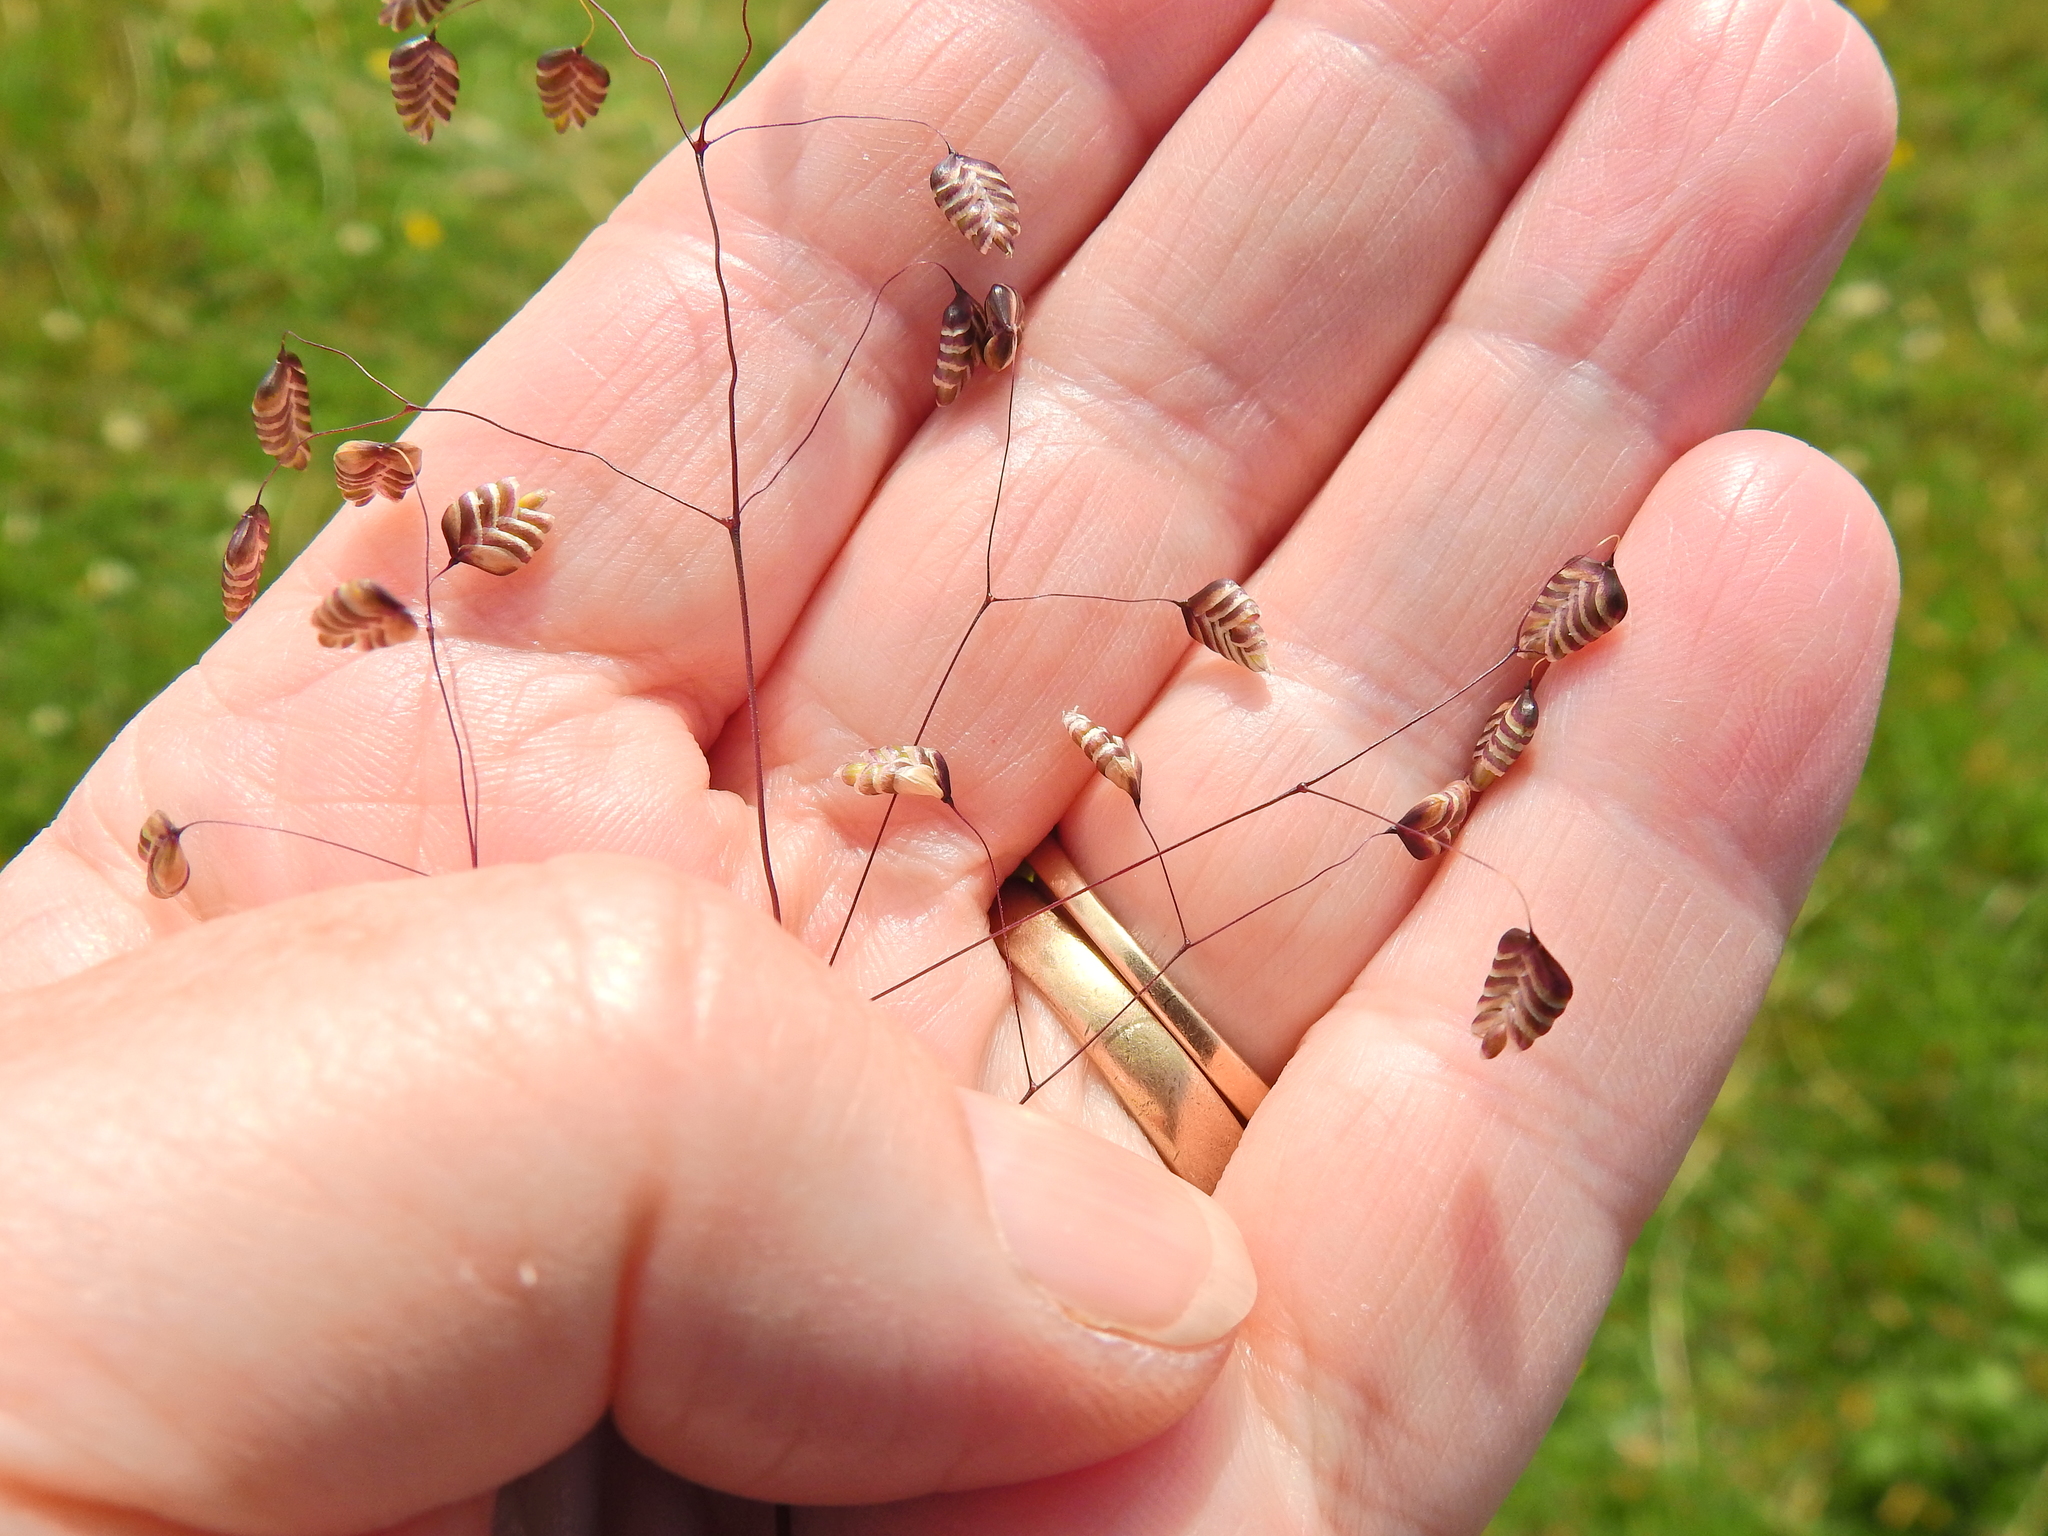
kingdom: Plantae
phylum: Tracheophyta
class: Liliopsida
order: Poales
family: Poaceae
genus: Briza
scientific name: Briza media
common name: Quaking grass
